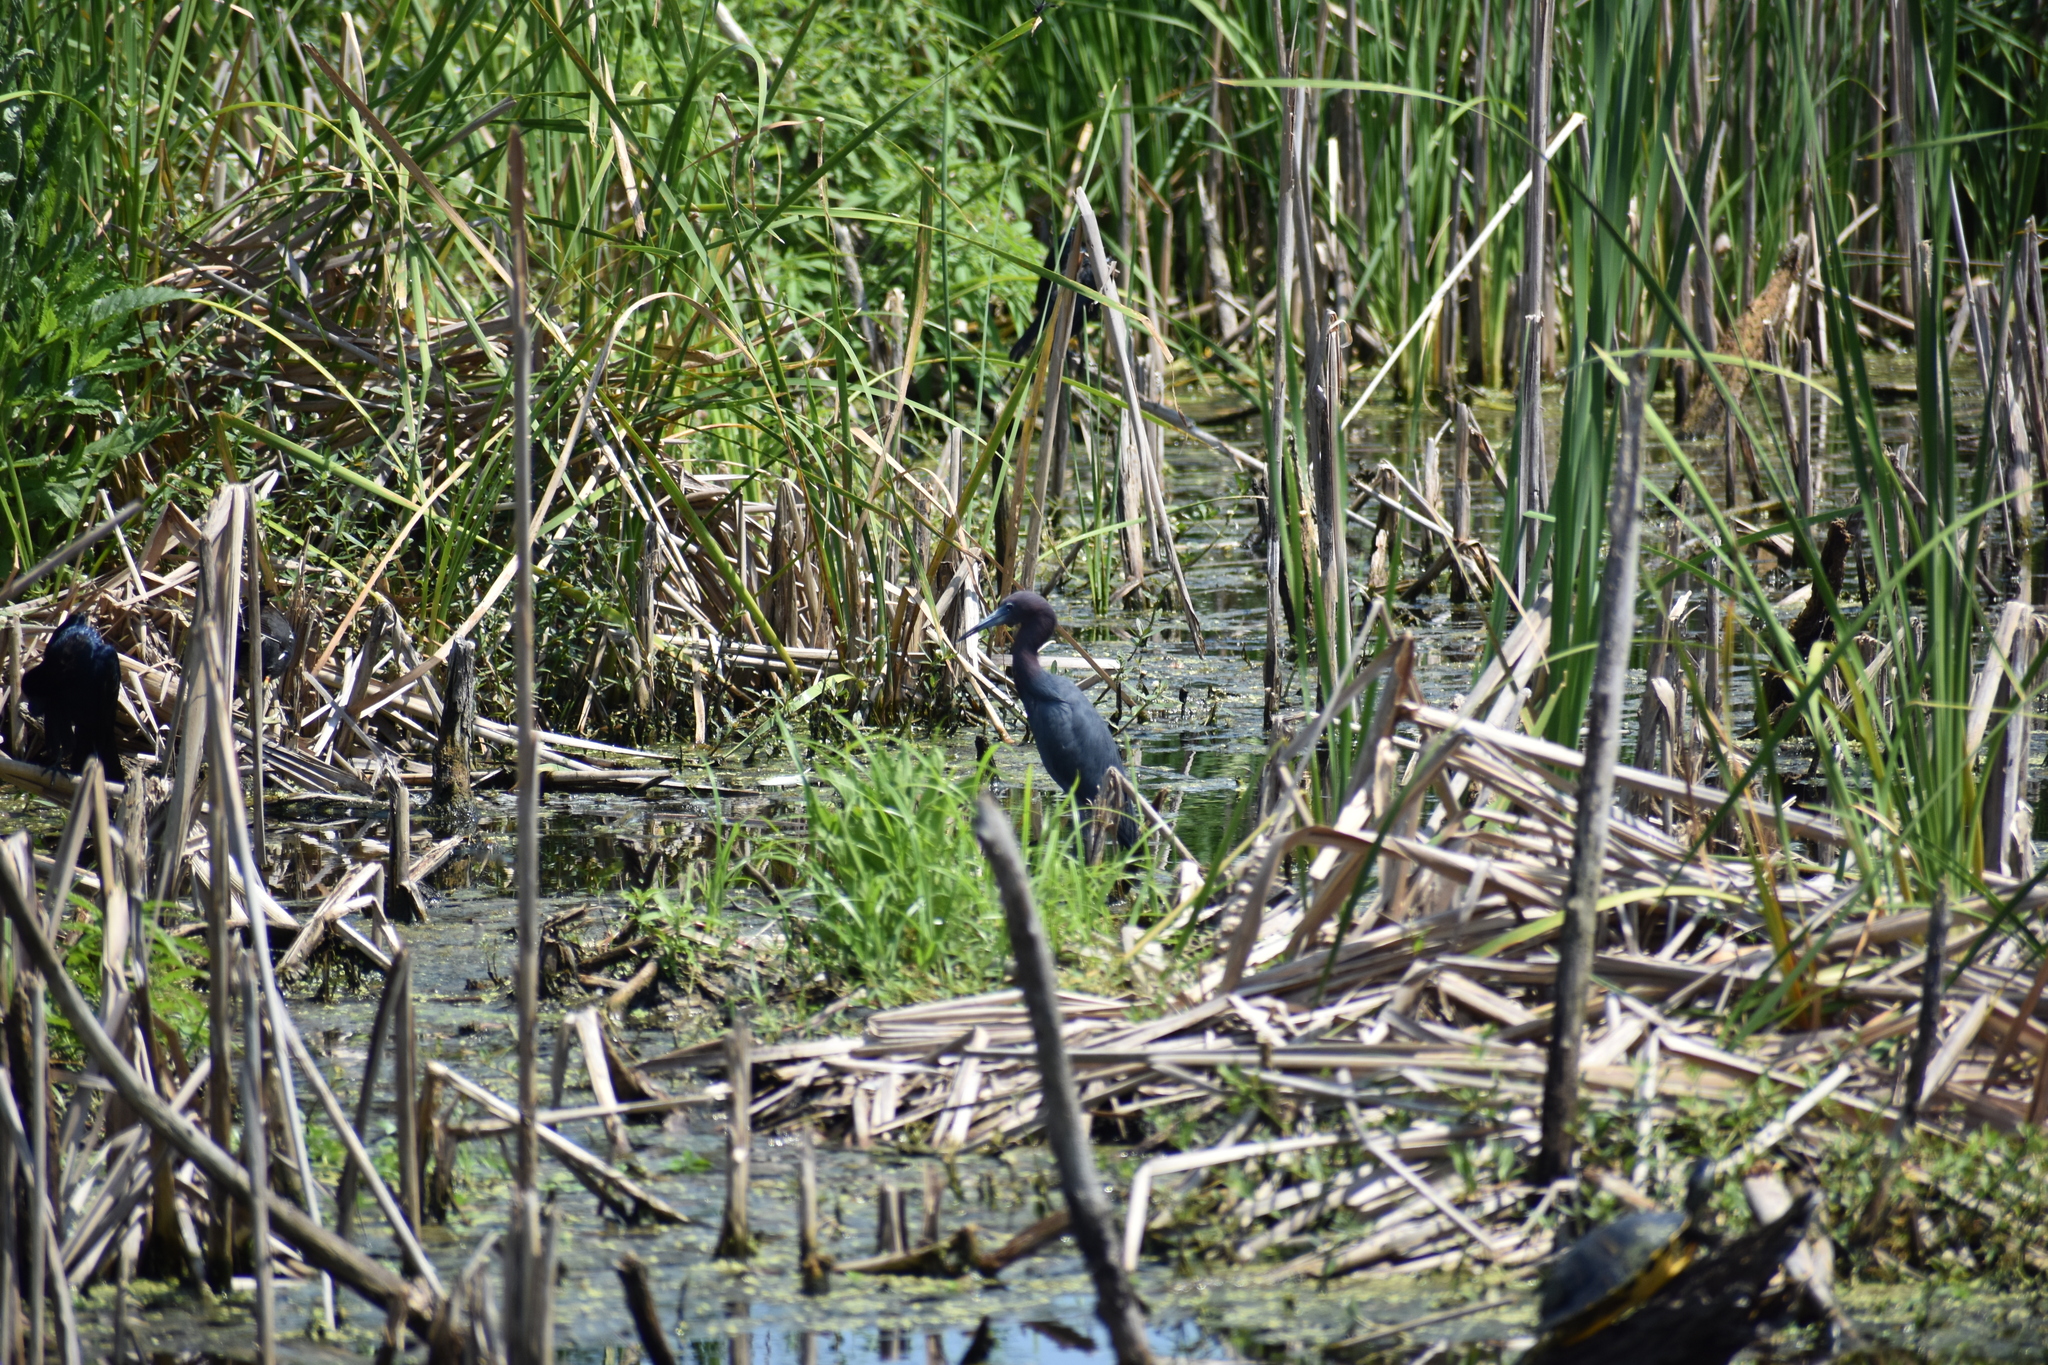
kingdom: Animalia
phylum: Chordata
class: Aves
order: Pelecaniformes
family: Ardeidae
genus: Egretta
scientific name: Egretta caerulea
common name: Little blue heron
